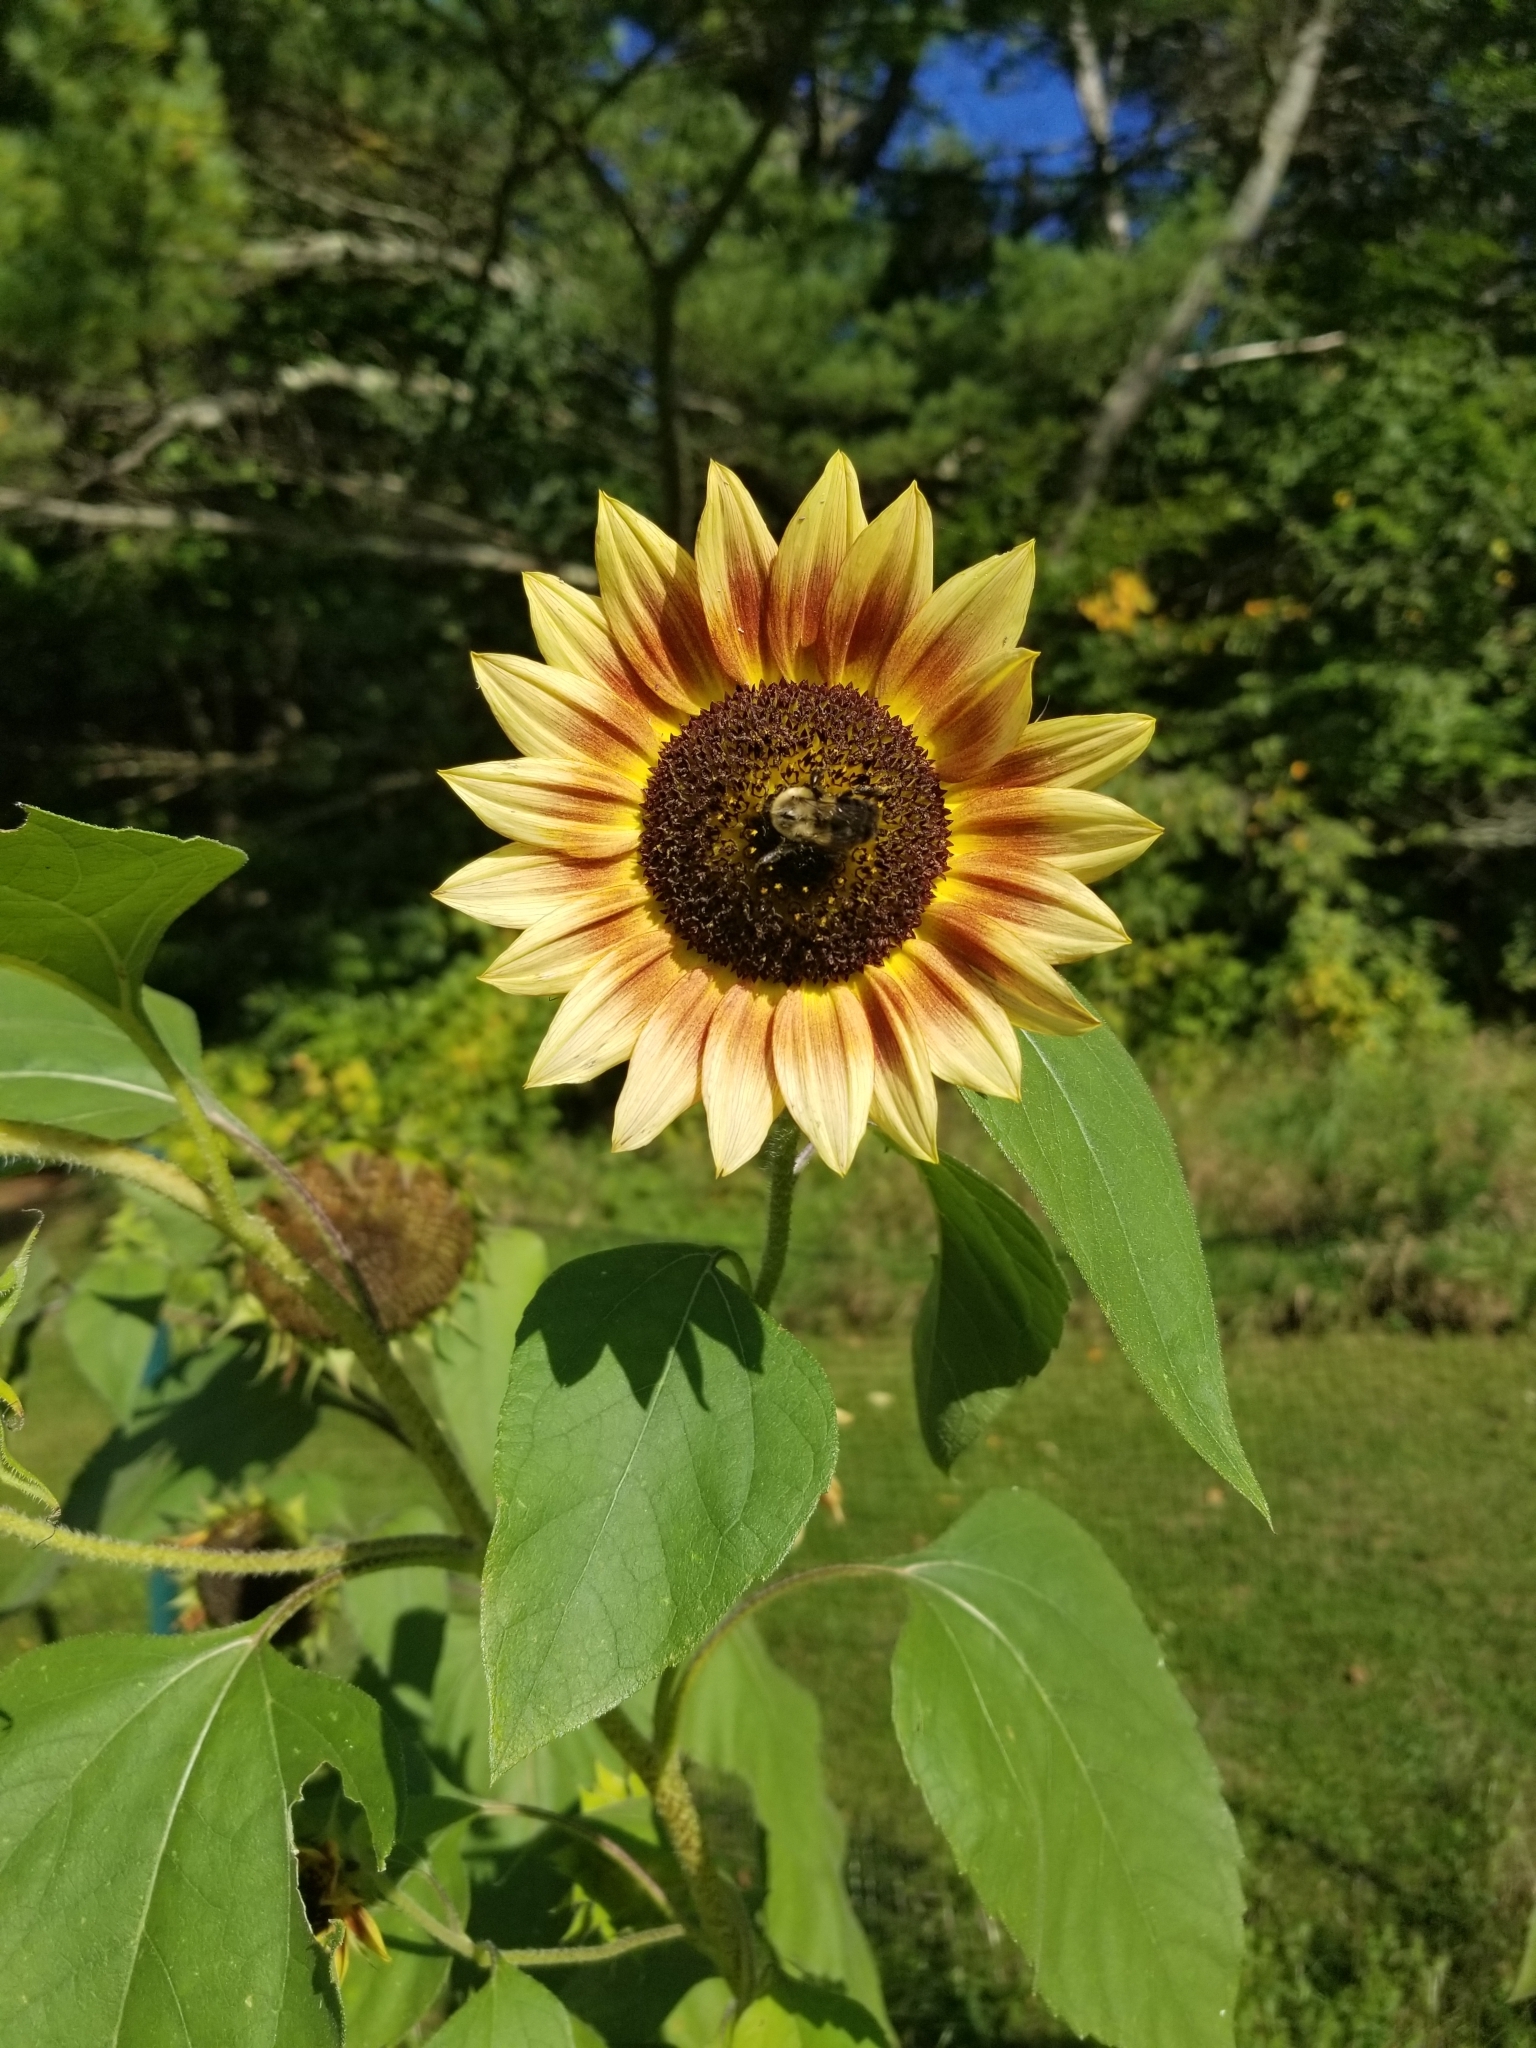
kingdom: Animalia
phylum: Arthropoda
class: Insecta
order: Hymenoptera
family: Apidae
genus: Bombus
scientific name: Bombus impatiens
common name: Common eastern bumble bee
